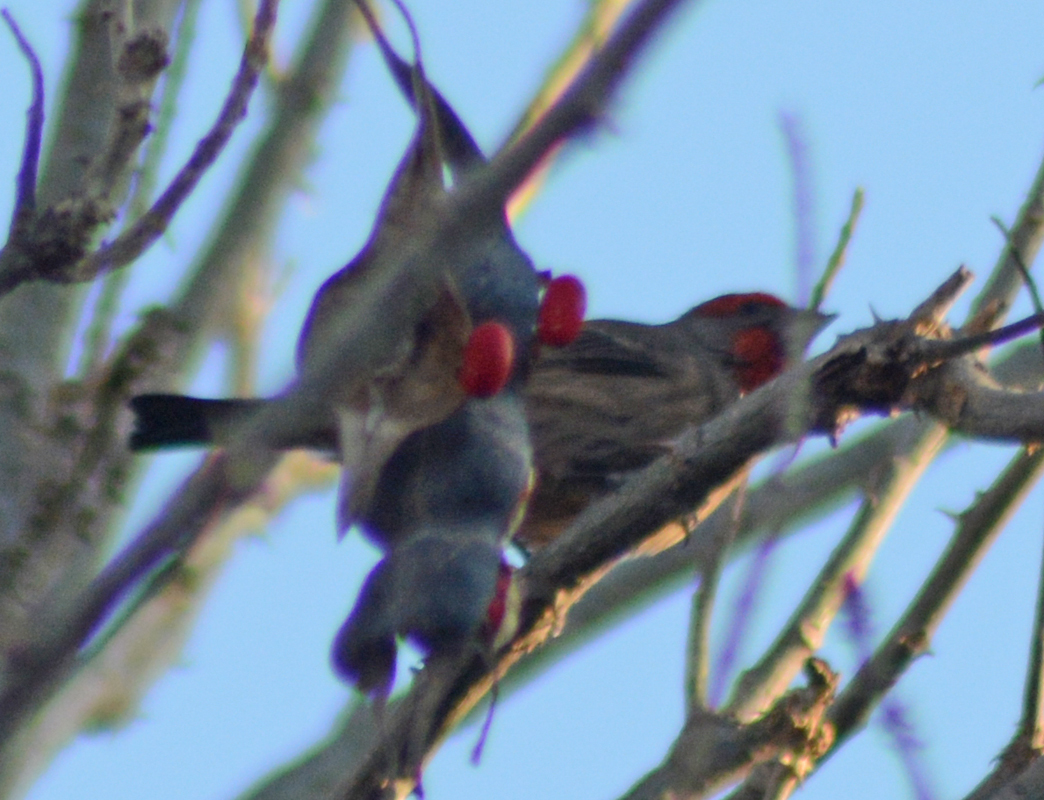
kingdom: Animalia
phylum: Chordata
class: Aves
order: Passeriformes
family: Fringillidae
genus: Haemorhous
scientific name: Haemorhous mexicanus
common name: House finch
